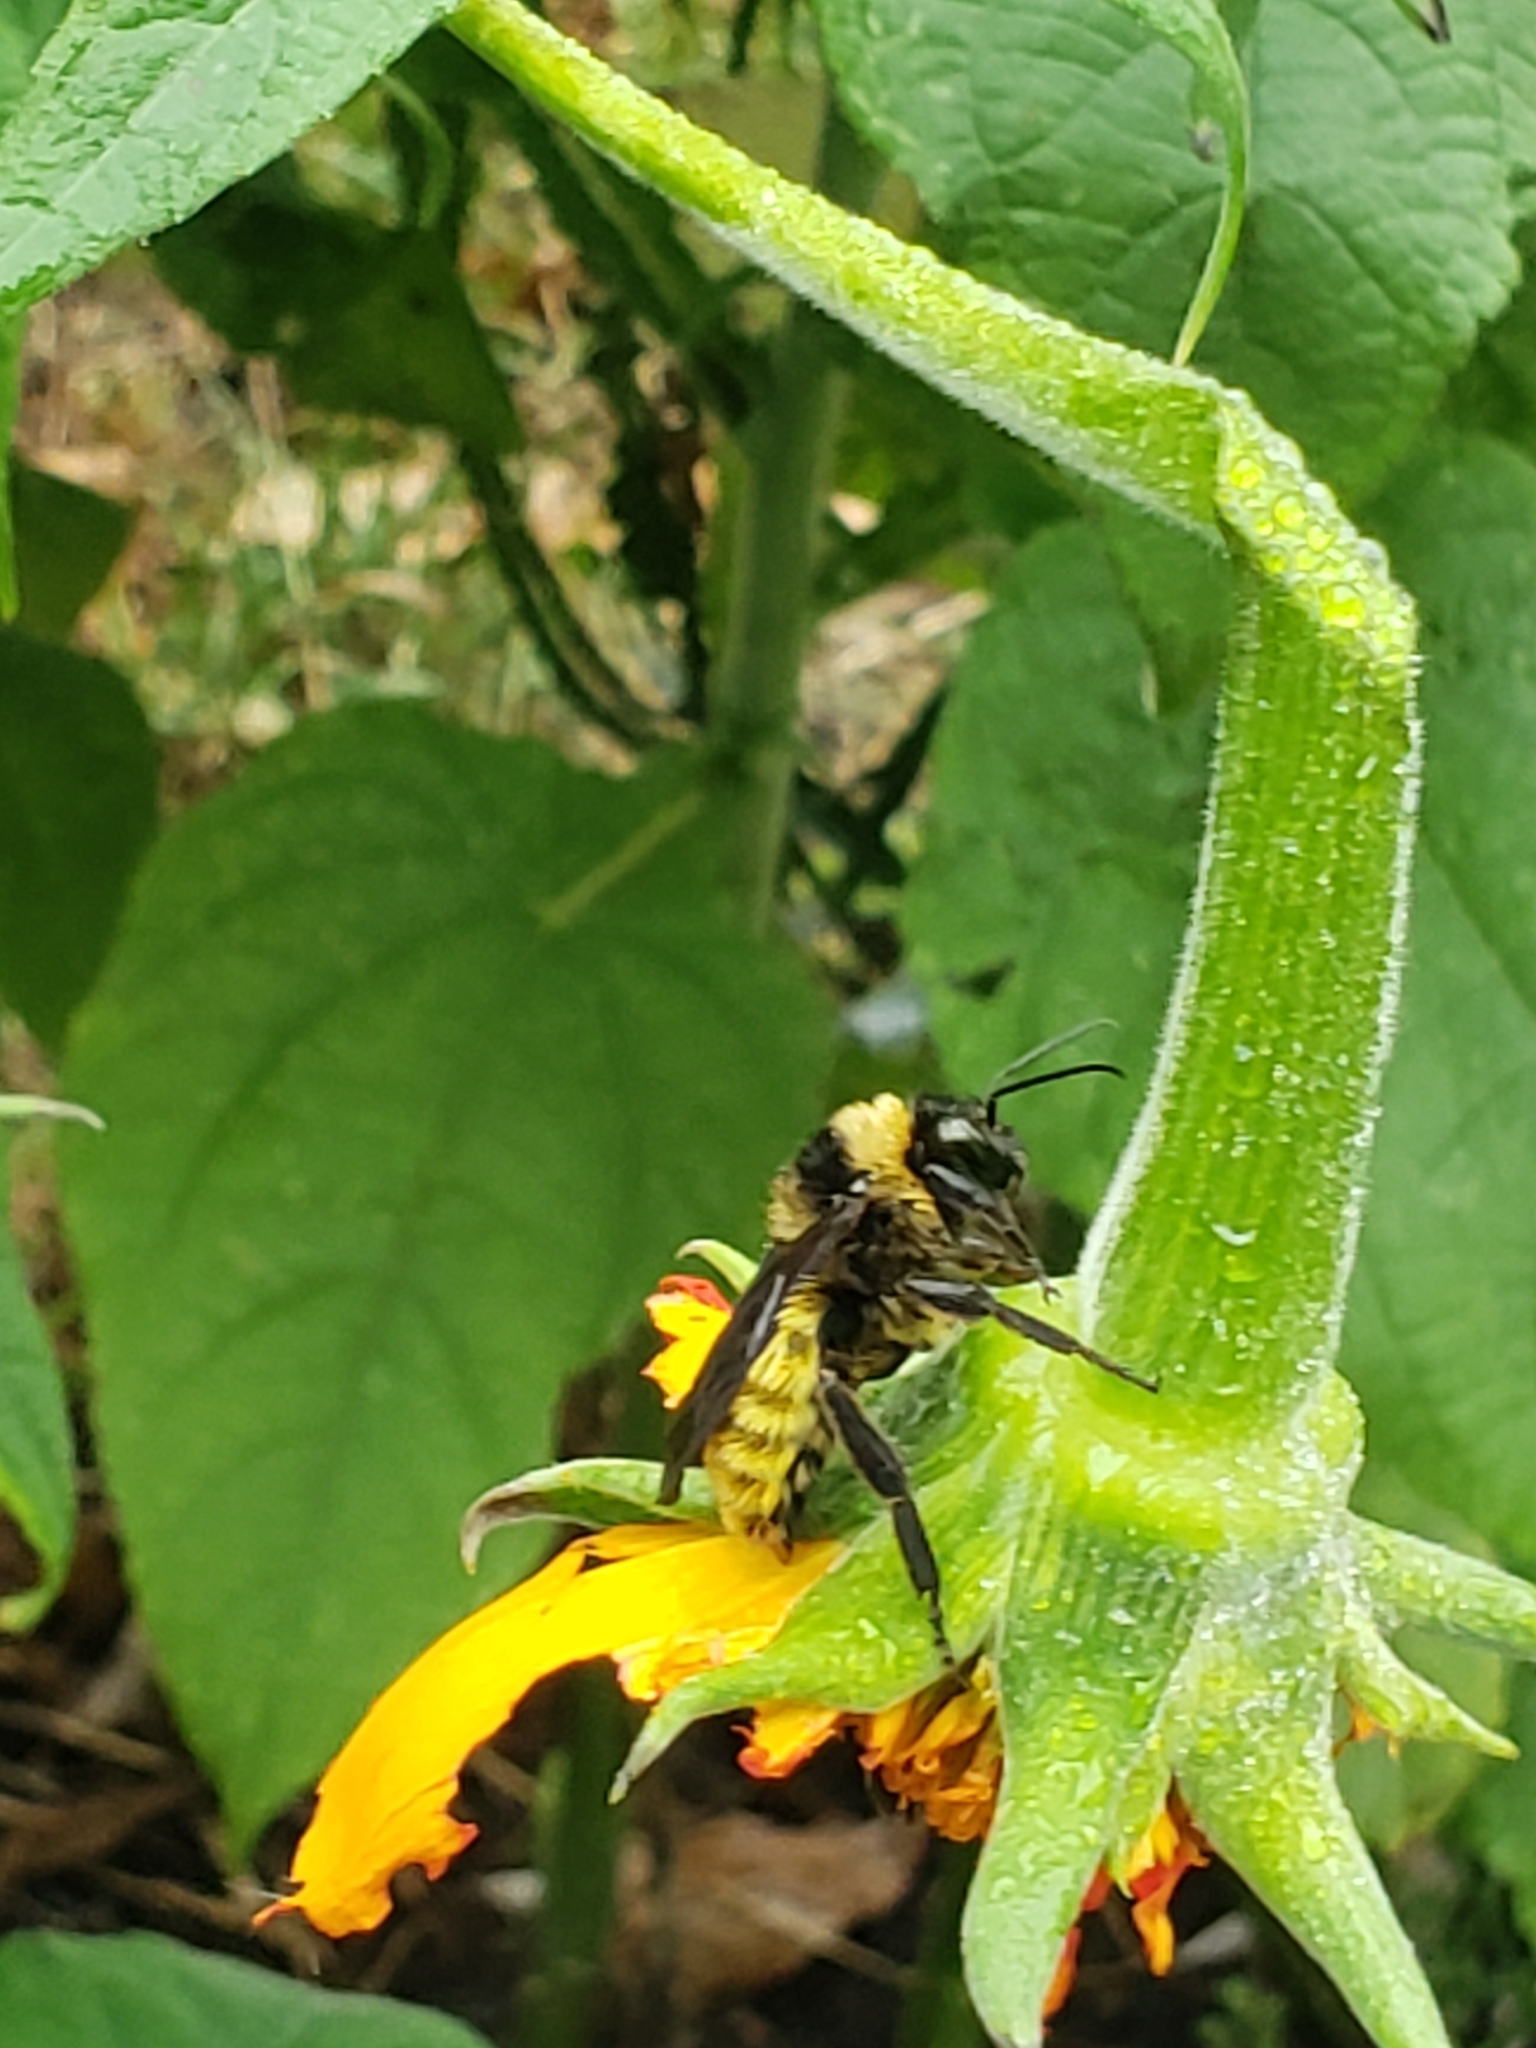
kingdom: Animalia
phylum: Arthropoda
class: Insecta
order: Hymenoptera
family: Apidae
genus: Bombus
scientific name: Bombus pensylvanicus
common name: Bumble bee
